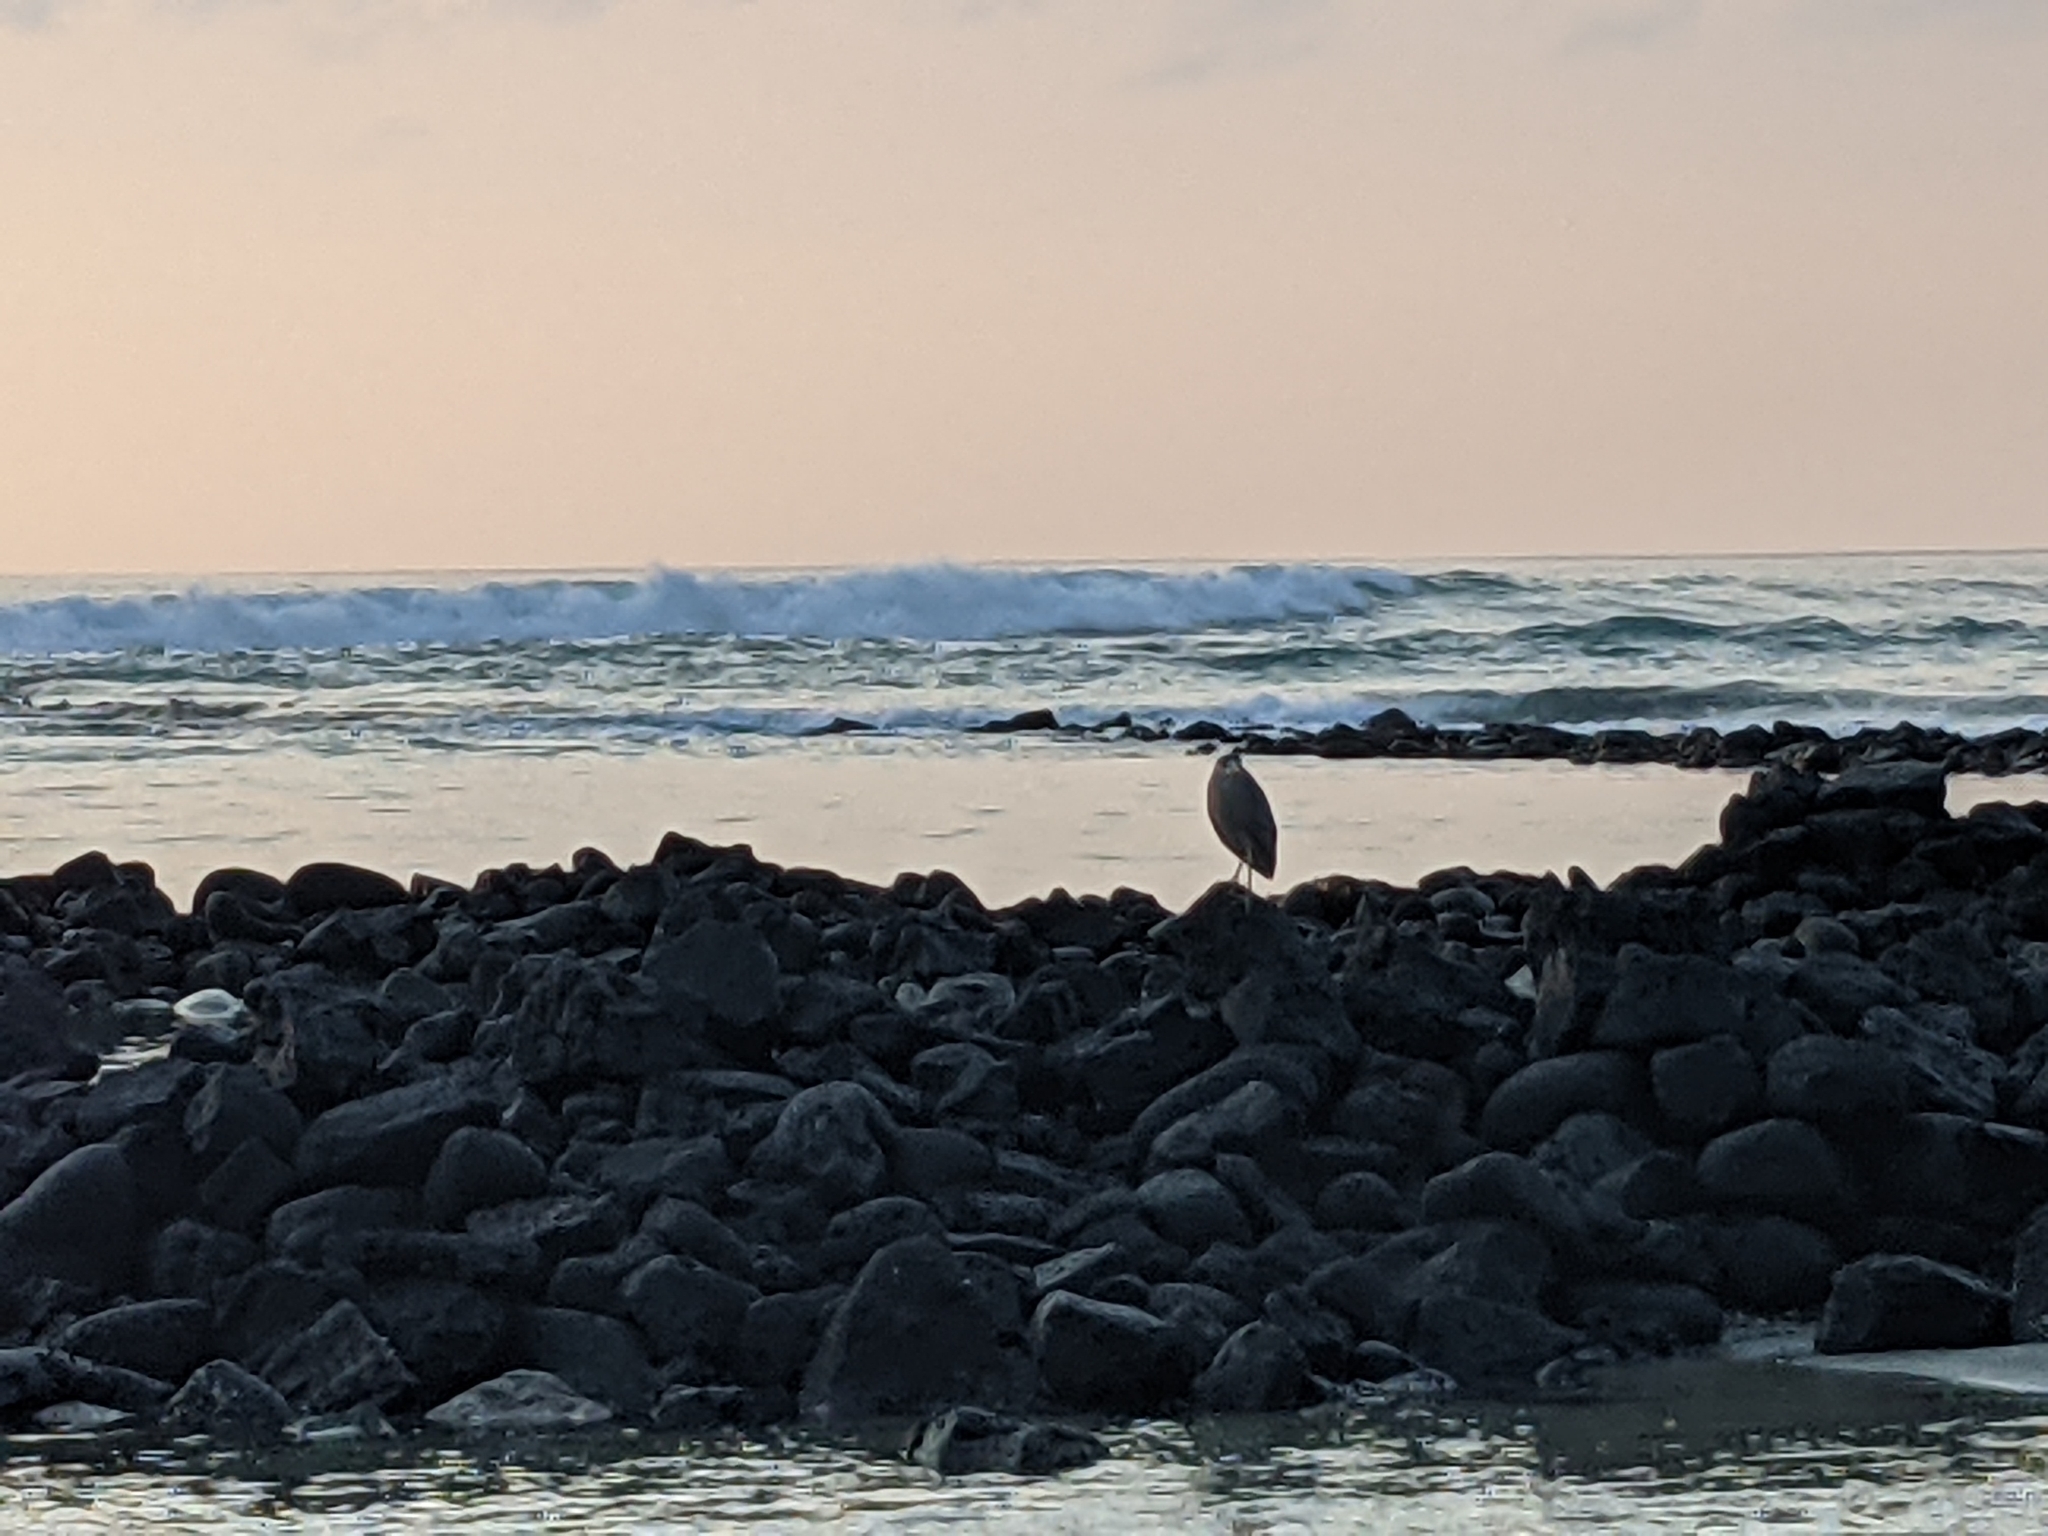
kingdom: Animalia
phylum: Chordata
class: Aves
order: Pelecaniformes
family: Ardeidae
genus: Nycticorax
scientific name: Nycticorax nycticorax
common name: Black-crowned night heron
